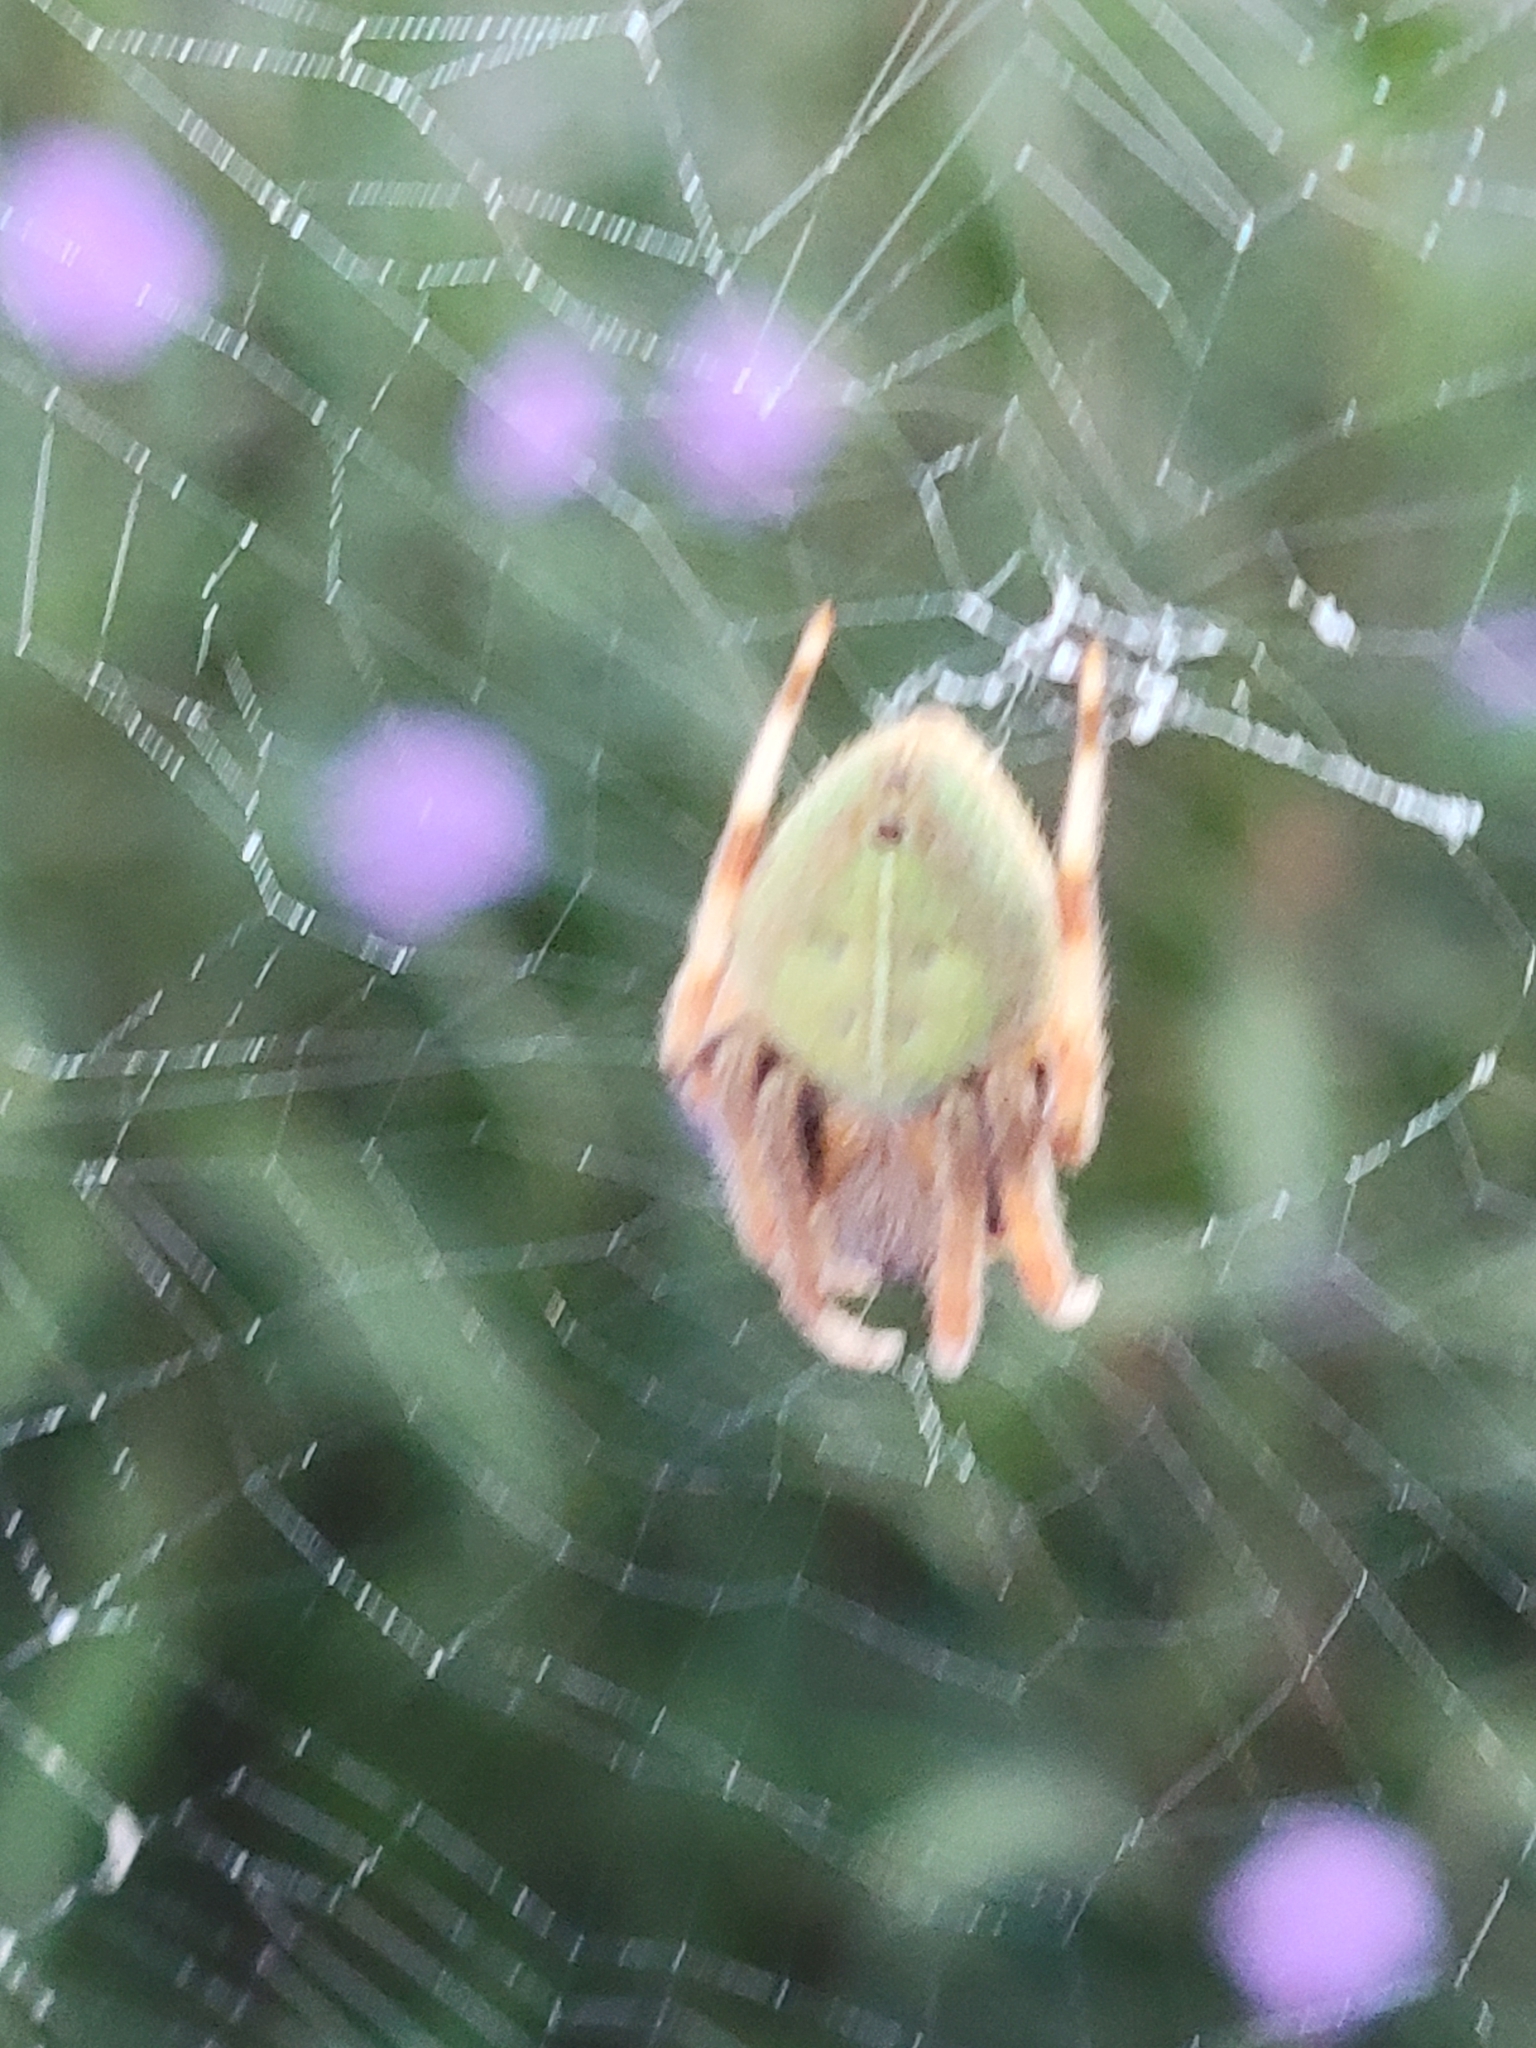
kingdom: Animalia
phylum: Arthropoda
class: Arachnida
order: Araneae
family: Araneidae
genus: Eriophora
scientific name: Eriophora ravilla
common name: Orb weavers
